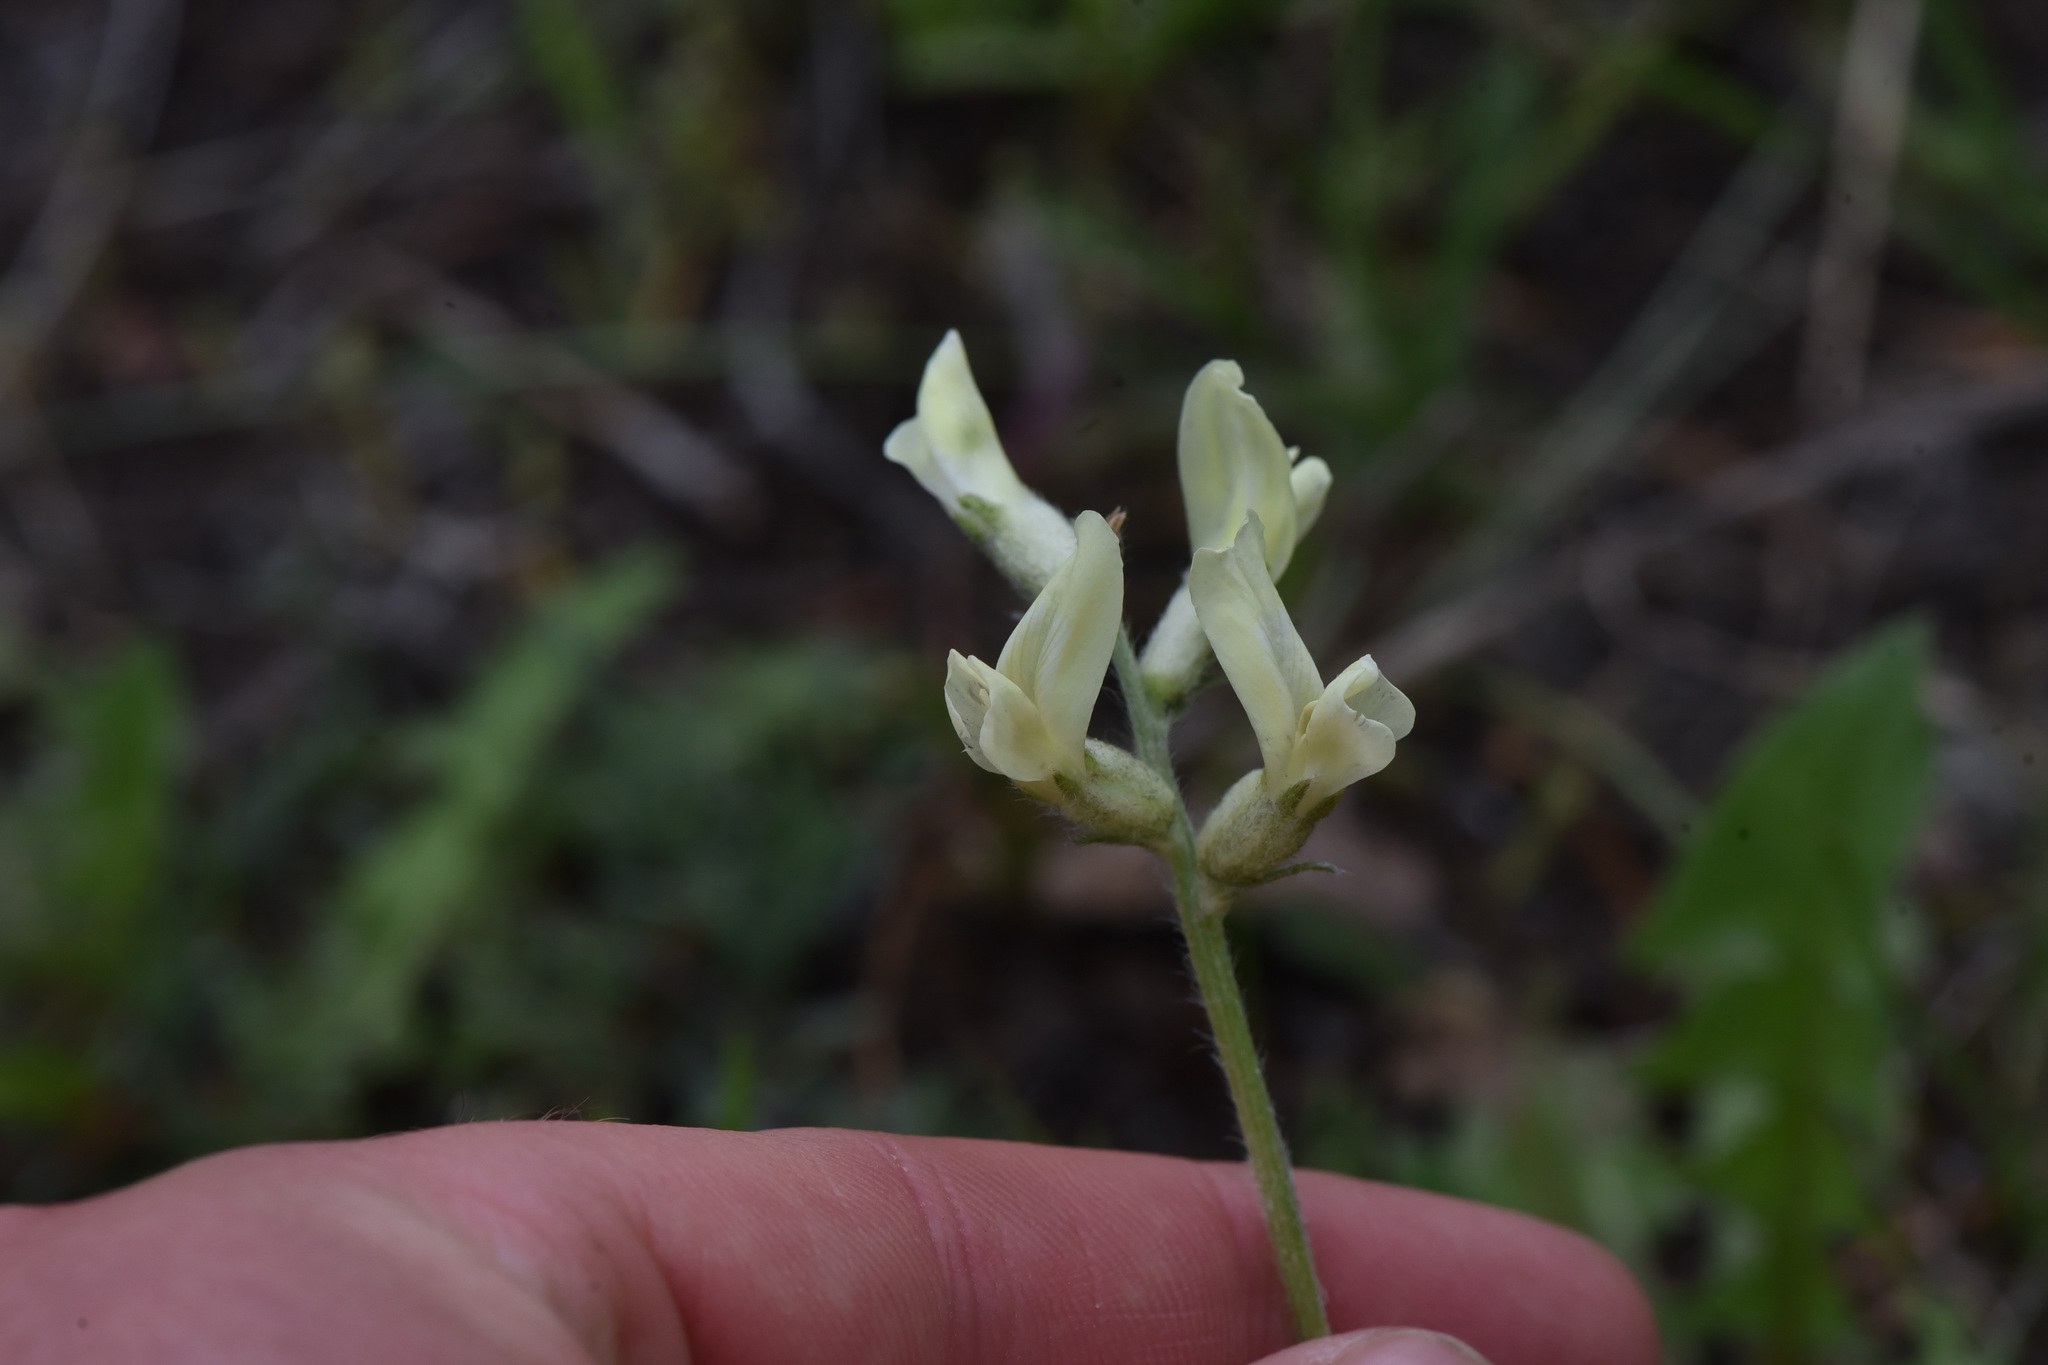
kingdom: Plantae
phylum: Tracheophyta
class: Magnoliopsida
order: Fabales
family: Fabaceae
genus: Oxytropis
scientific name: Oxytropis campestris
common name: Field locoweed
